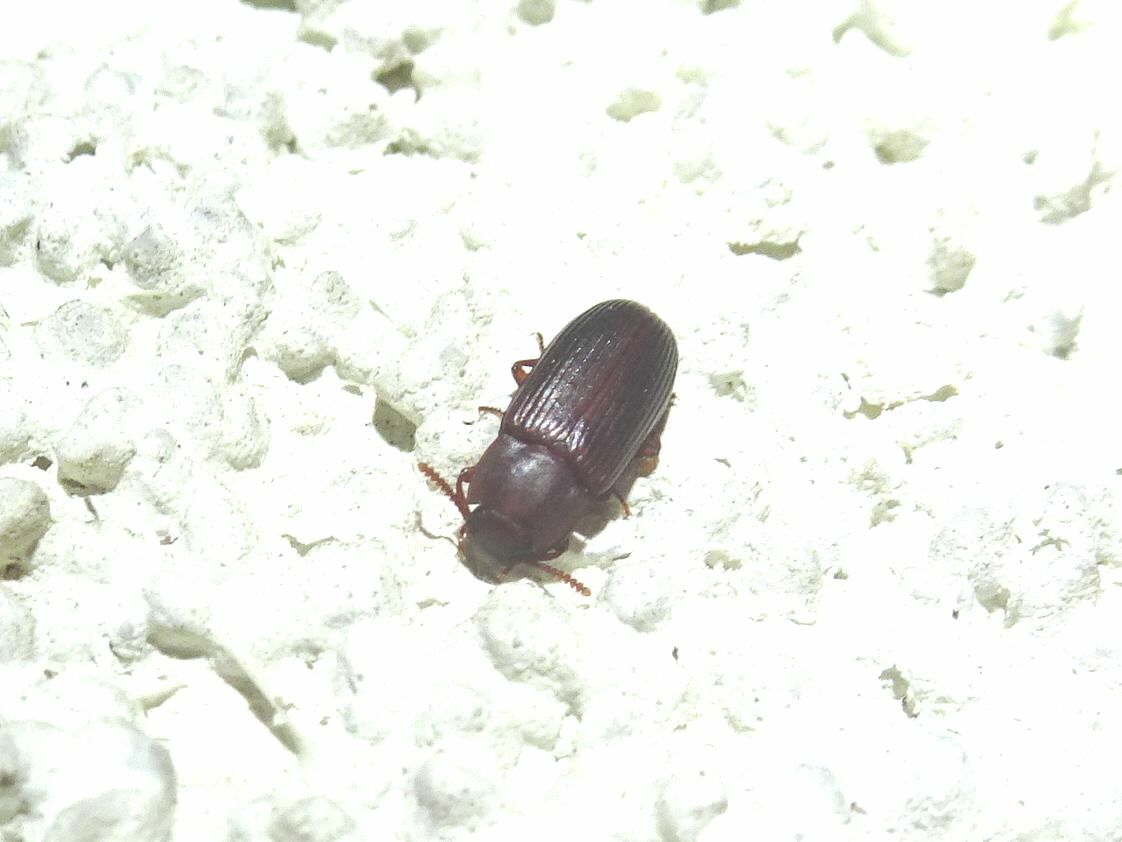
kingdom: Animalia
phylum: Arthropoda
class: Insecta
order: Coleoptera
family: Tenebrionidae
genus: Tenebrio
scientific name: Tenebrio molitor
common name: Hardback beetle
